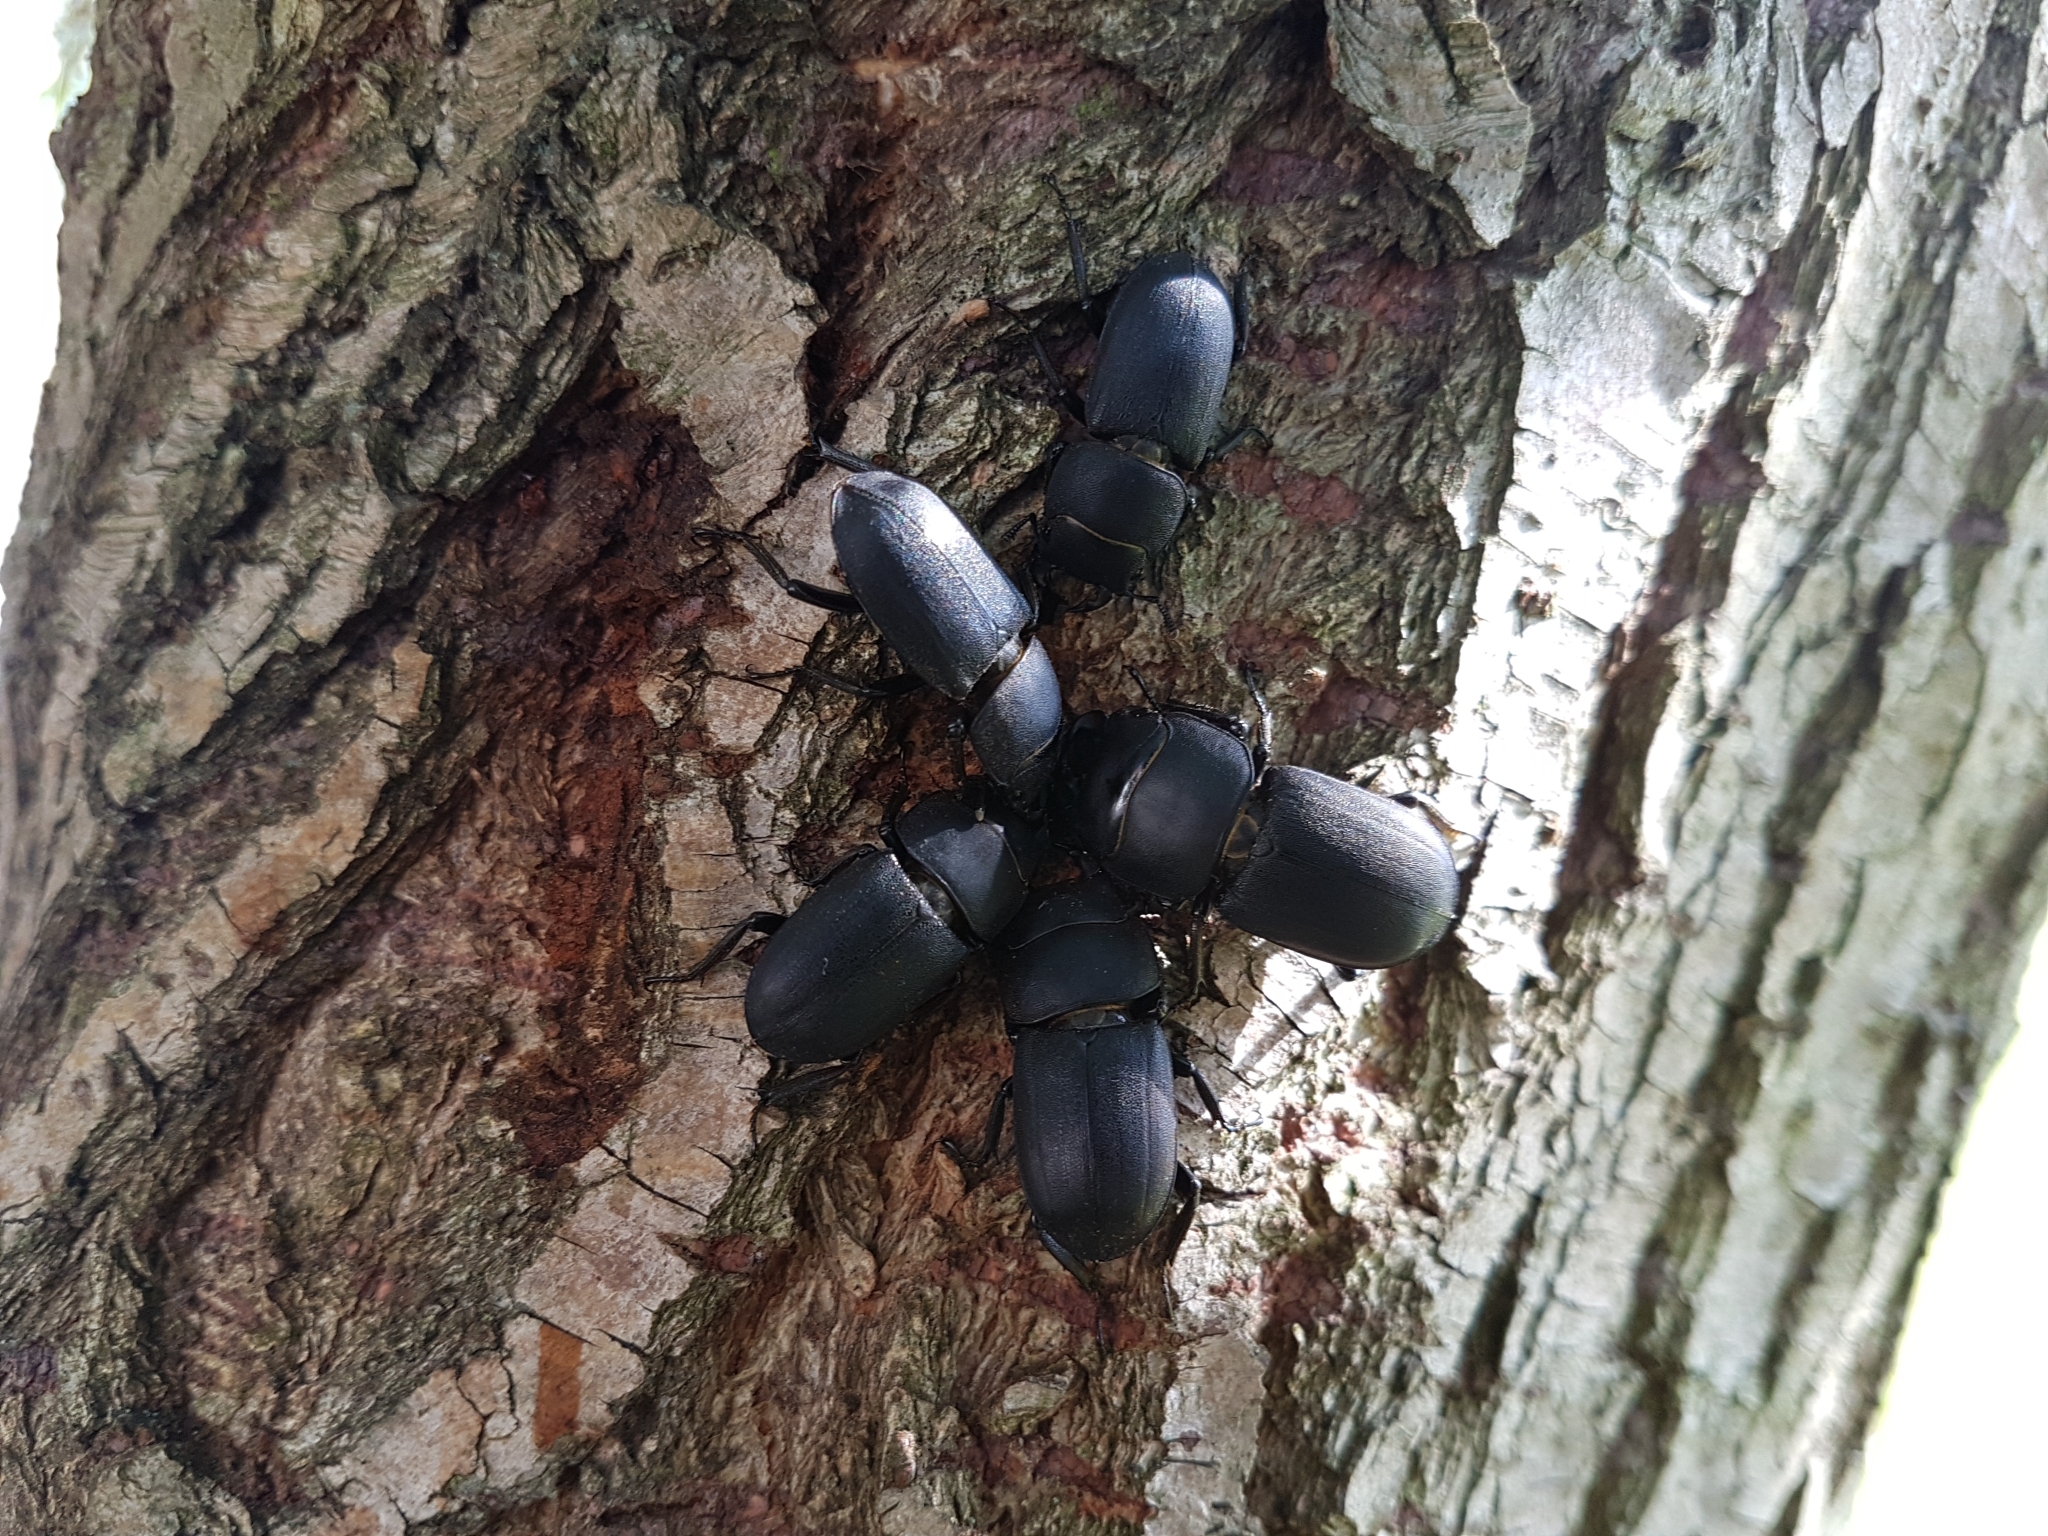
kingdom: Animalia
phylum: Arthropoda
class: Insecta
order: Coleoptera
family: Lucanidae
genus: Dorcus
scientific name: Dorcus parallelipipedus
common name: Lesser stag beetle
